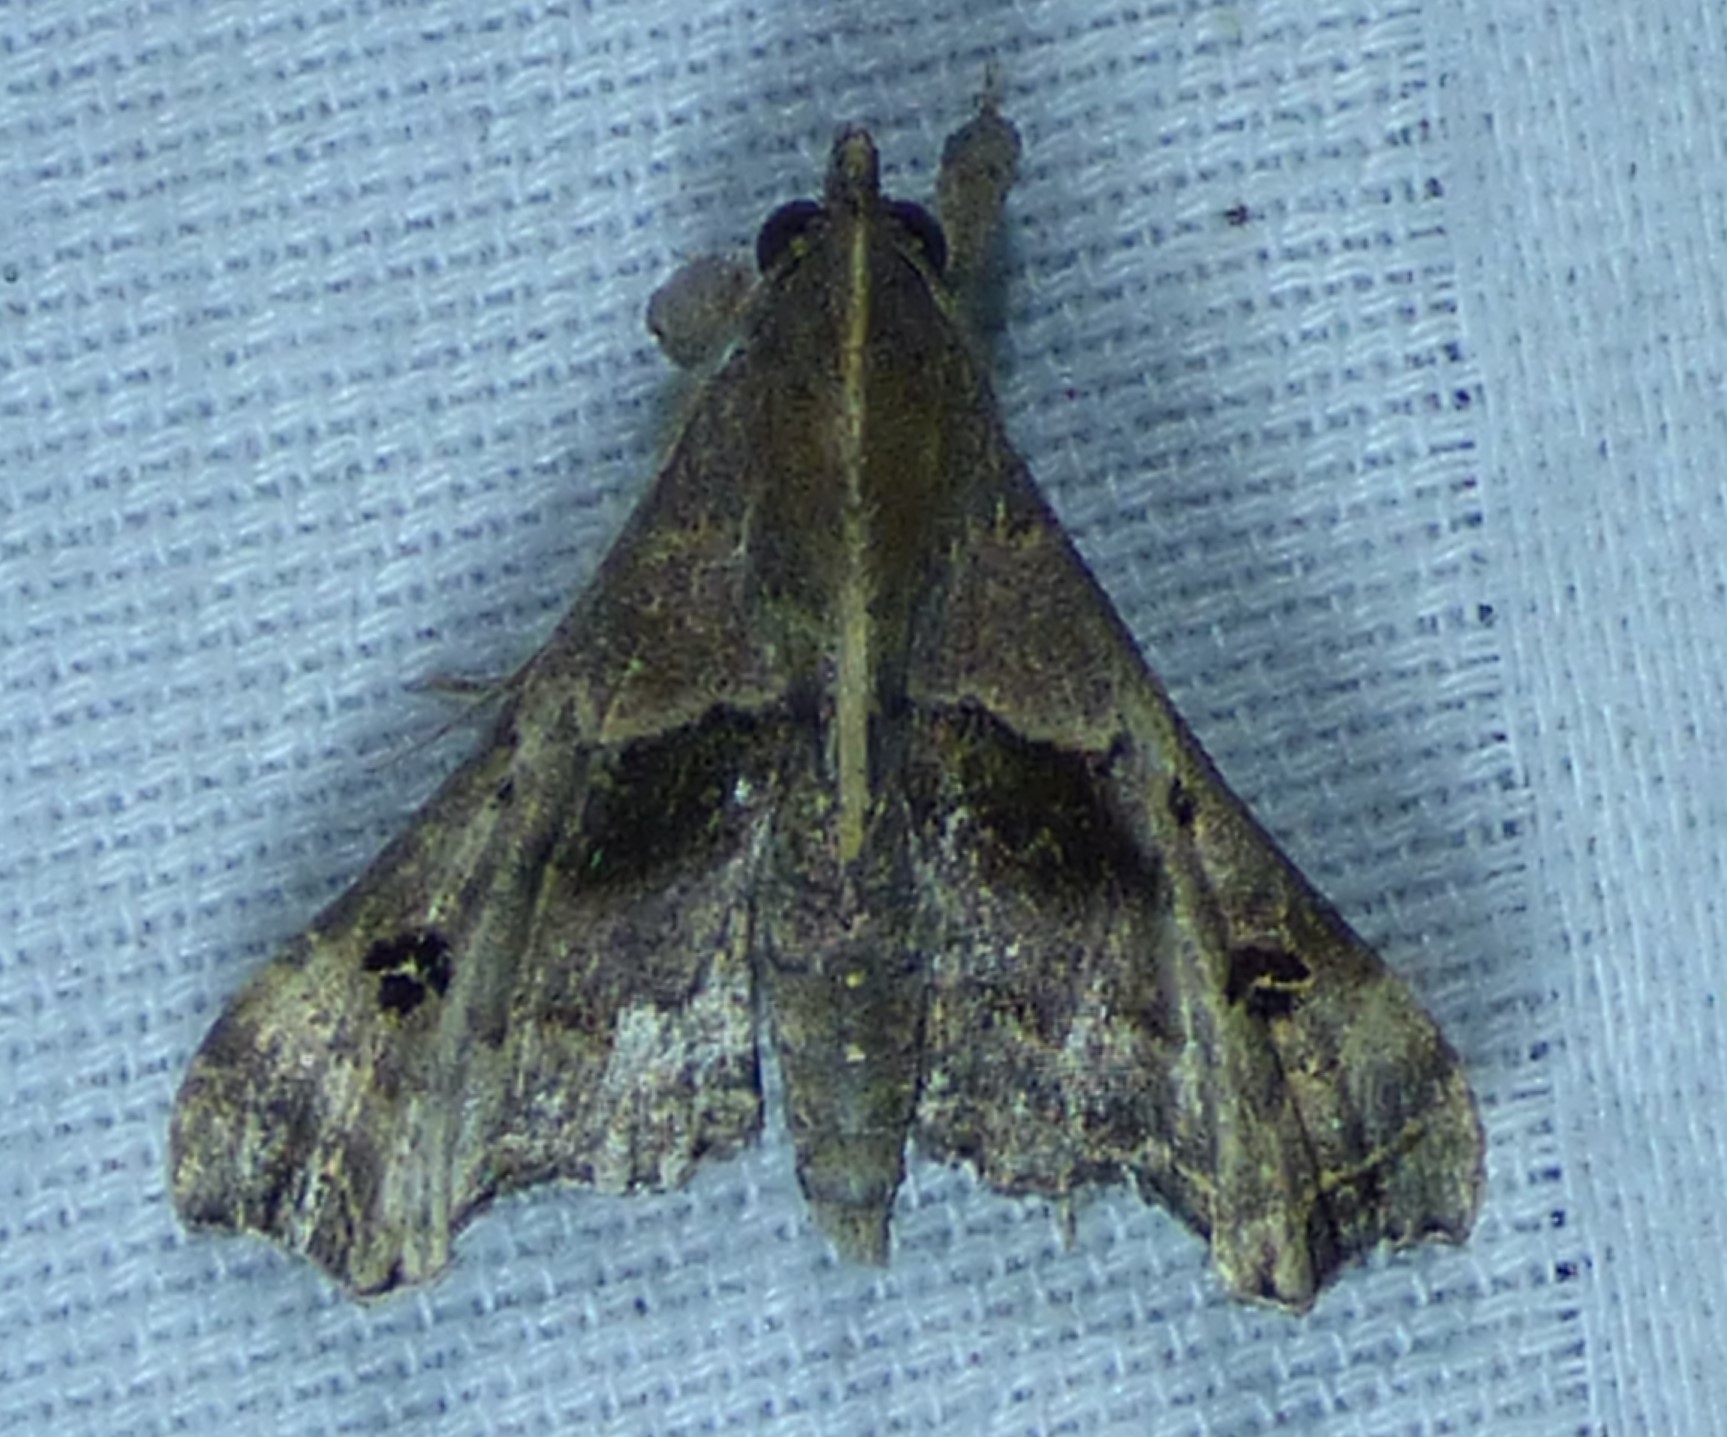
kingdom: Animalia
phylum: Arthropoda
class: Insecta
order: Lepidoptera
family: Erebidae
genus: Palthis
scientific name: Palthis asopialis
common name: Faint-spotted palthis moth
